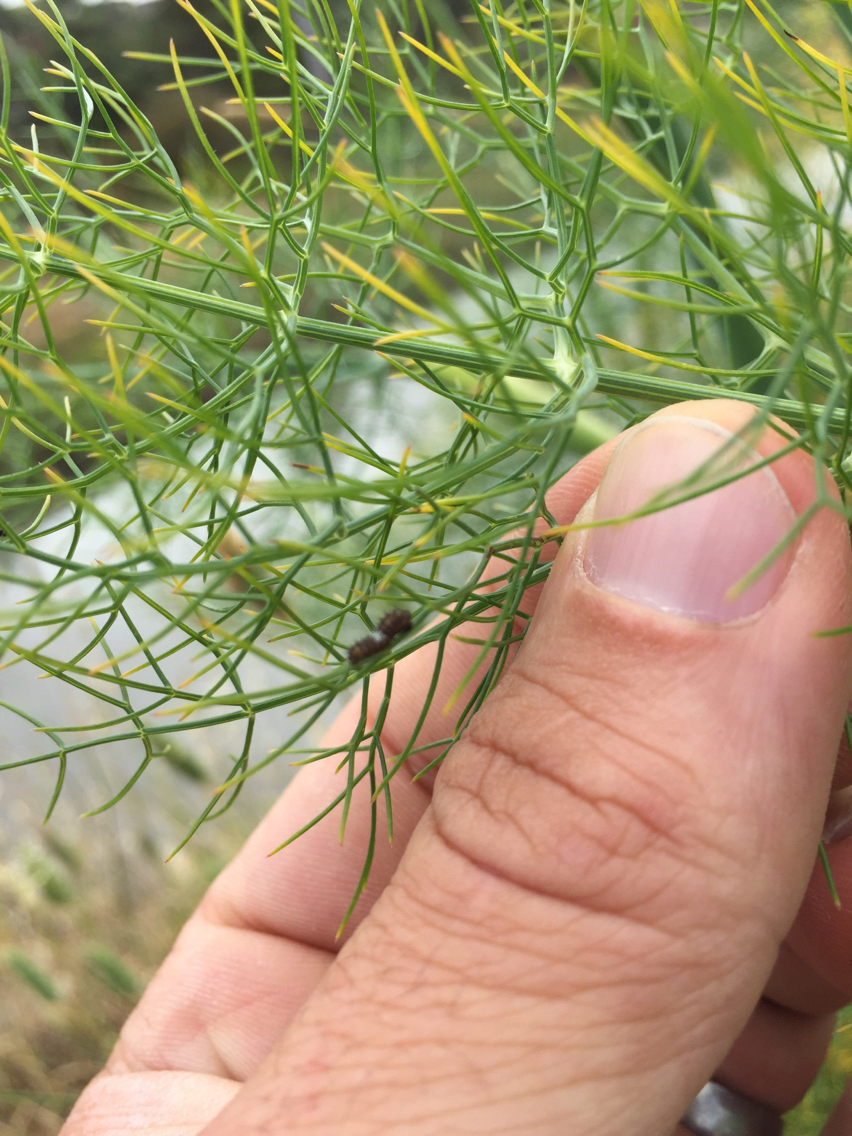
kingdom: Animalia
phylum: Arthropoda
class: Insecta
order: Lepidoptera
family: Papilionidae
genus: Papilio
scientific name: Papilio zelicaon
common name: Anise swallowtail
